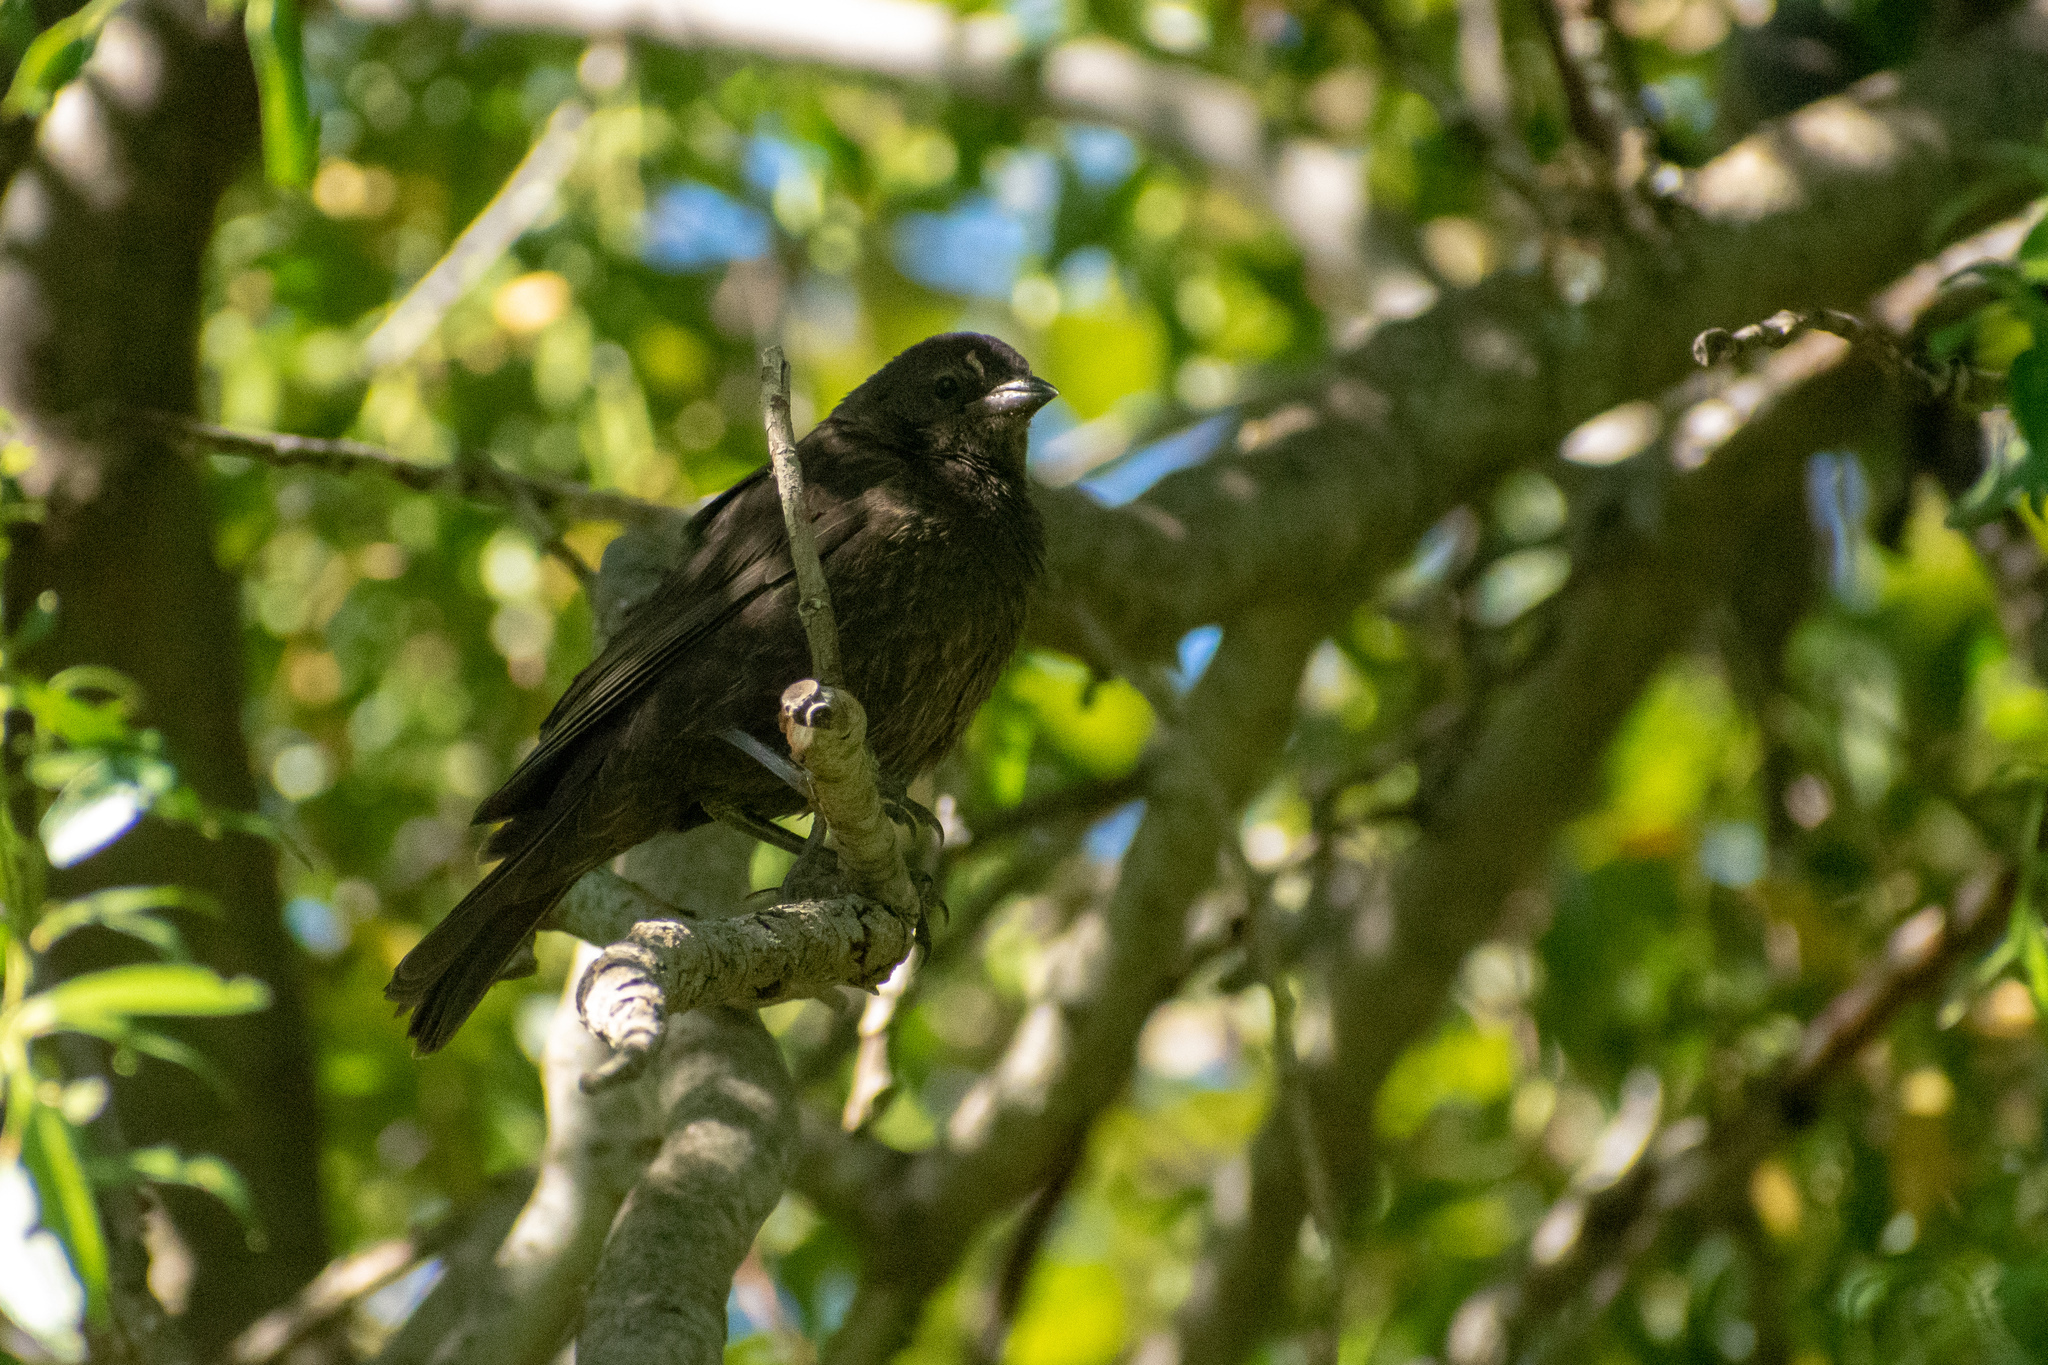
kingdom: Animalia
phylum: Chordata
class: Aves
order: Passeriformes
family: Icteridae
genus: Molothrus
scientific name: Molothrus bonariensis
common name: Shiny cowbird
